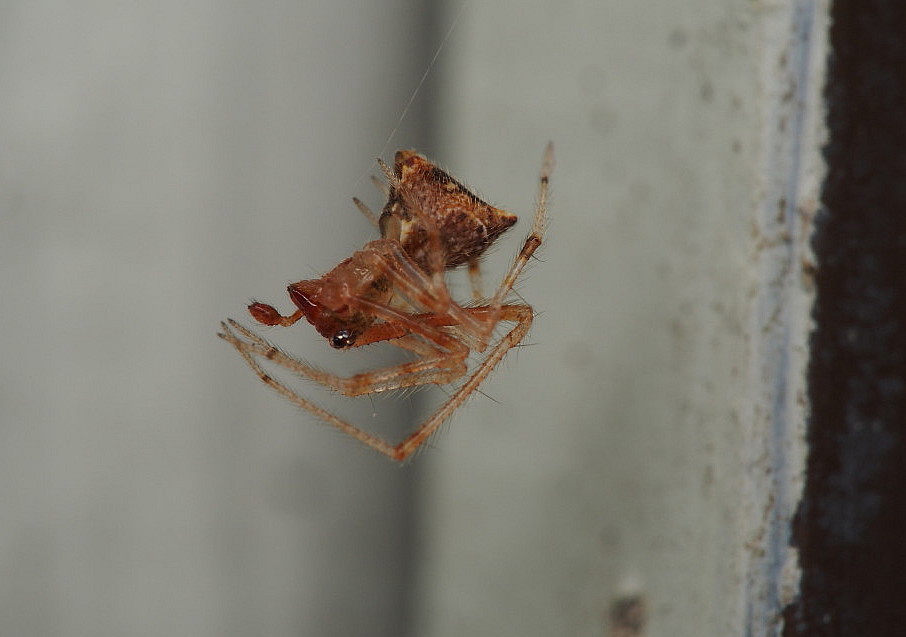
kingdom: Animalia
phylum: Arthropoda
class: Arachnida
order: Araneae
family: Theridiidae
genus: Cryptachaea
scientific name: Cryptachaea meraukensis
